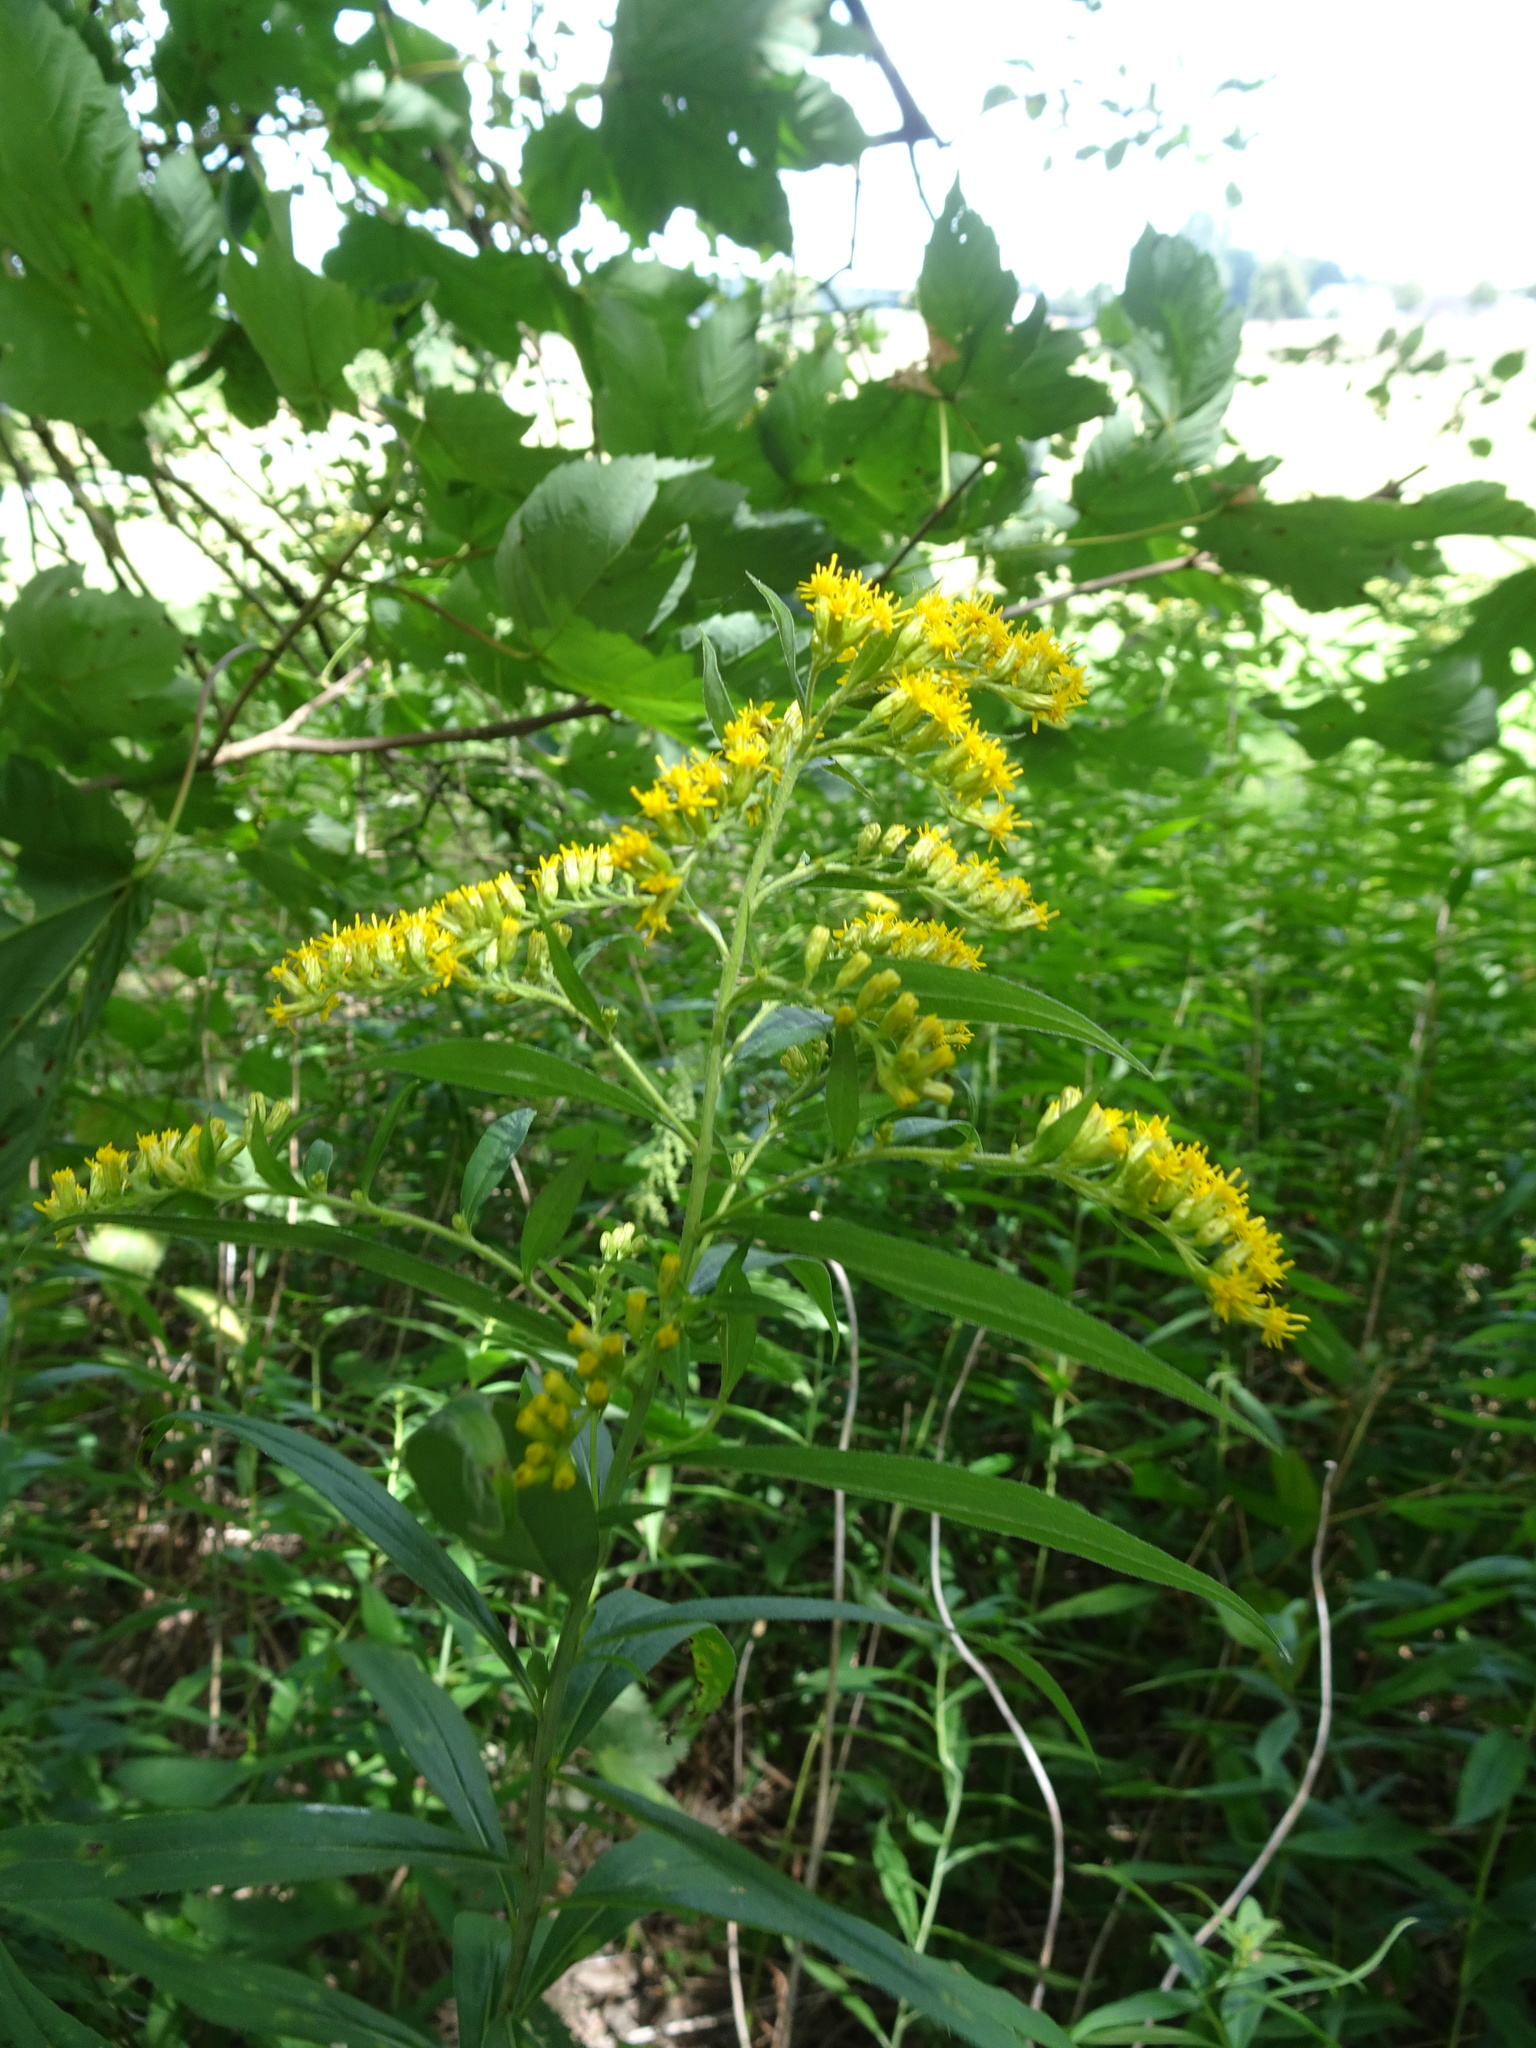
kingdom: Plantae
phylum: Tracheophyta
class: Magnoliopsida
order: Asterales
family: Asteraceae
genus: Solidago
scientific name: Solidago canadensis
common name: Canada goldenrod
